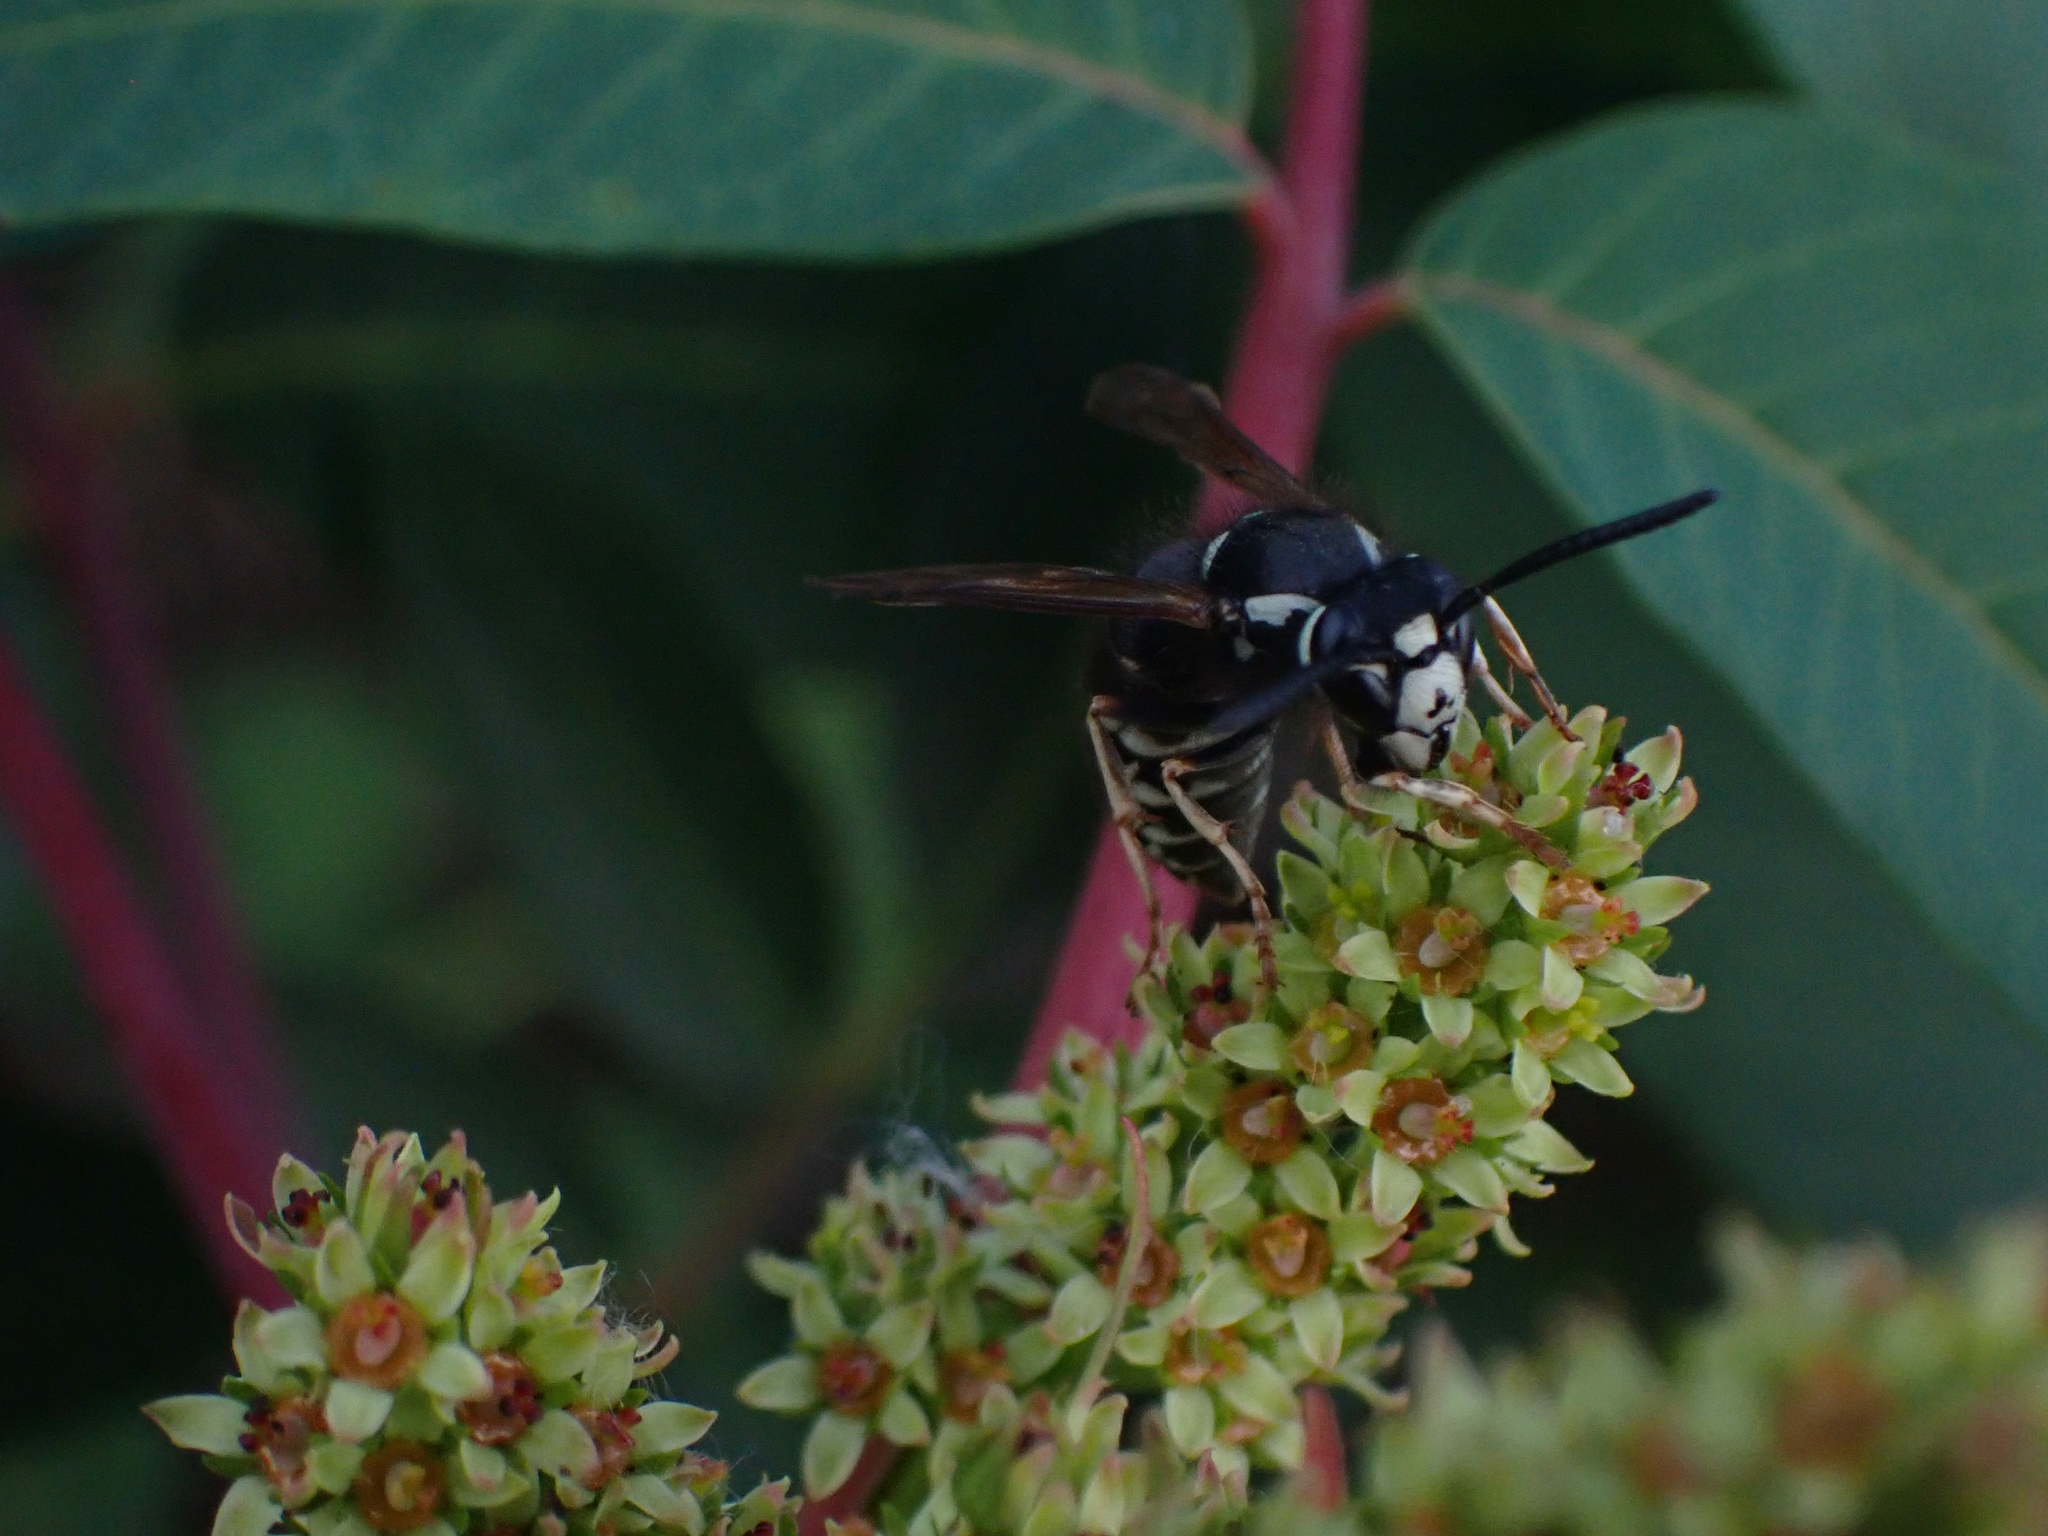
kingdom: Animalia
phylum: Arthropoda
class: Insecta
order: Hymenoptera
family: Vespidae
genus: Vespula
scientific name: Vespula consobrina
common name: Blackjacket
